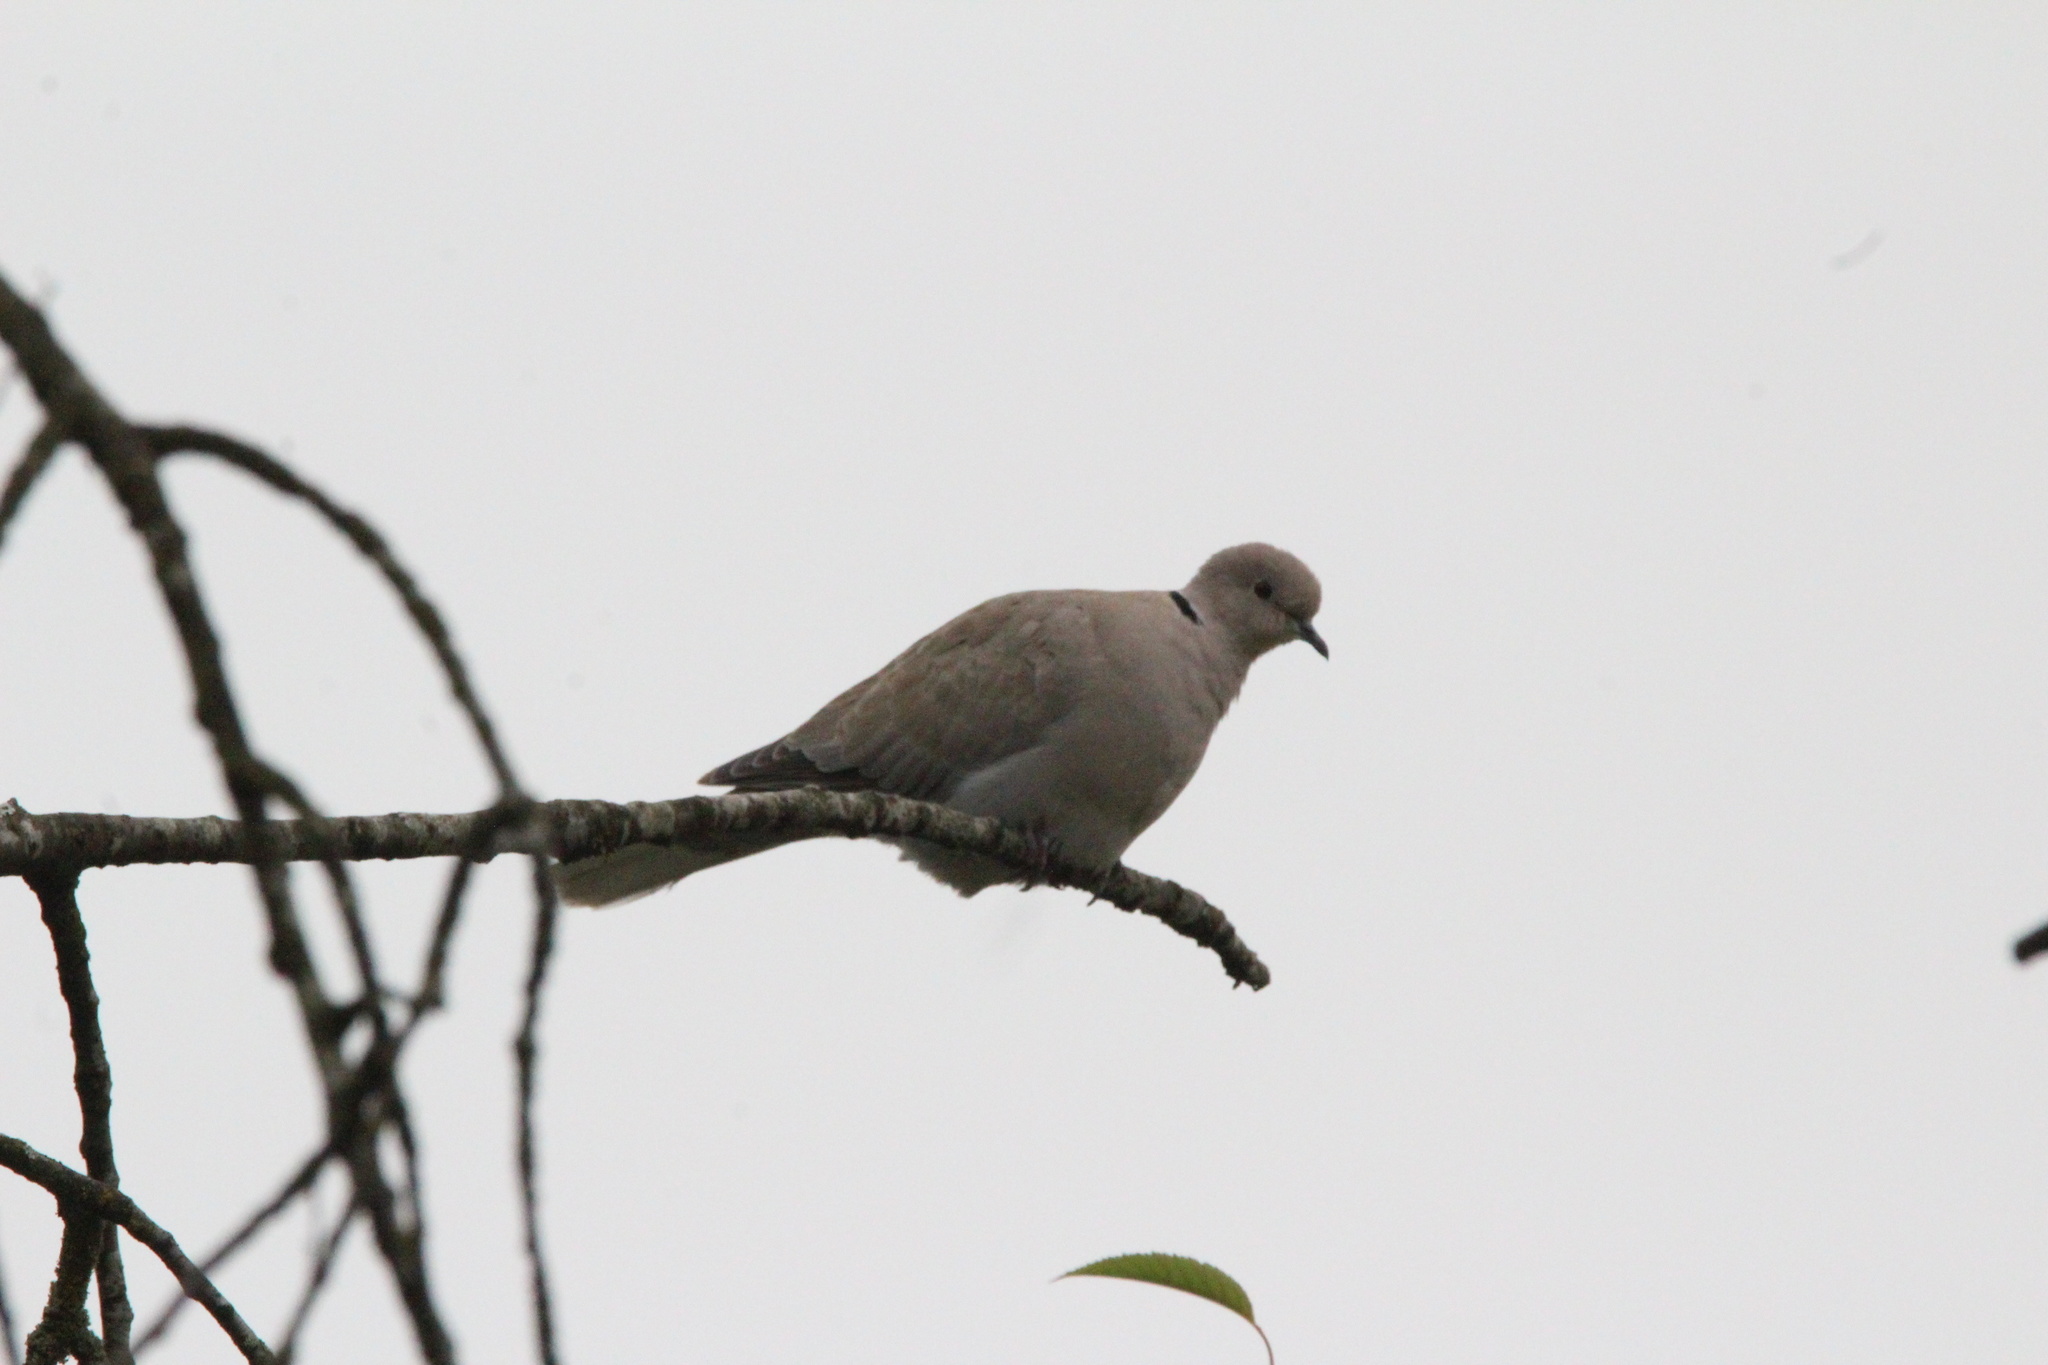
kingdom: Animalia
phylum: Chordata
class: Aves
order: Columbiformes
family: Columbidae
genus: Streptopelia
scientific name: Streptopelia decaocto
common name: Eurasian collared dove
